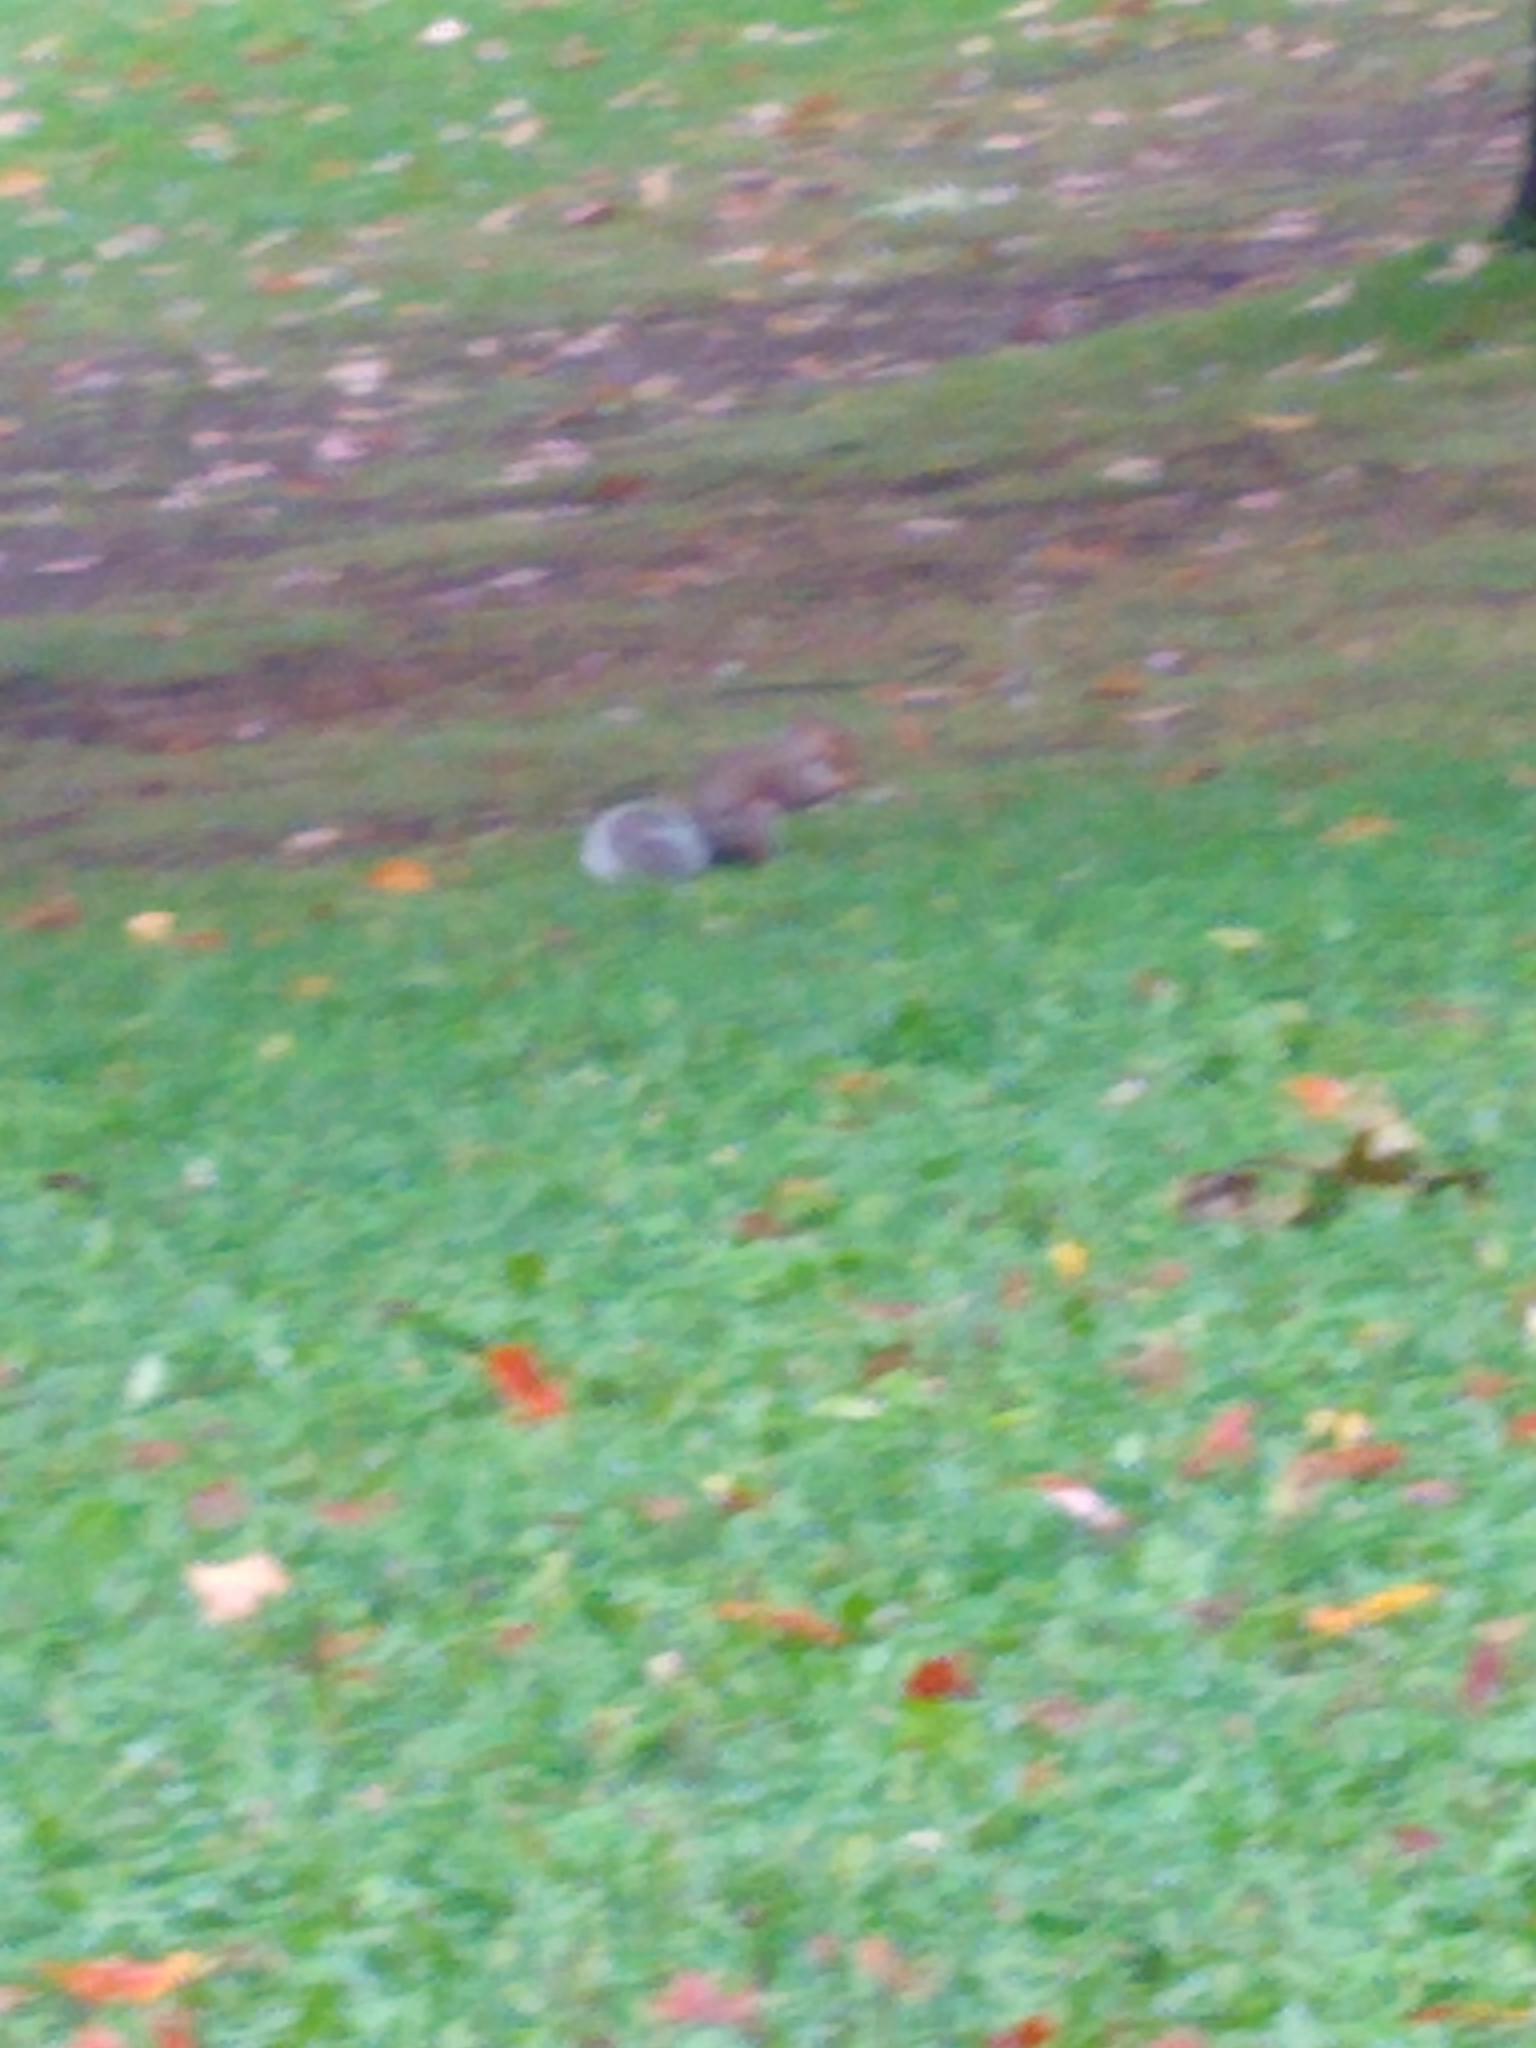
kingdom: Animalia
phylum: Chordata
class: Mammalia
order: Rodentia
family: Sciuridae
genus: Sciurus
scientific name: Sciurus carolinensis
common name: Eastern gray squirrel
